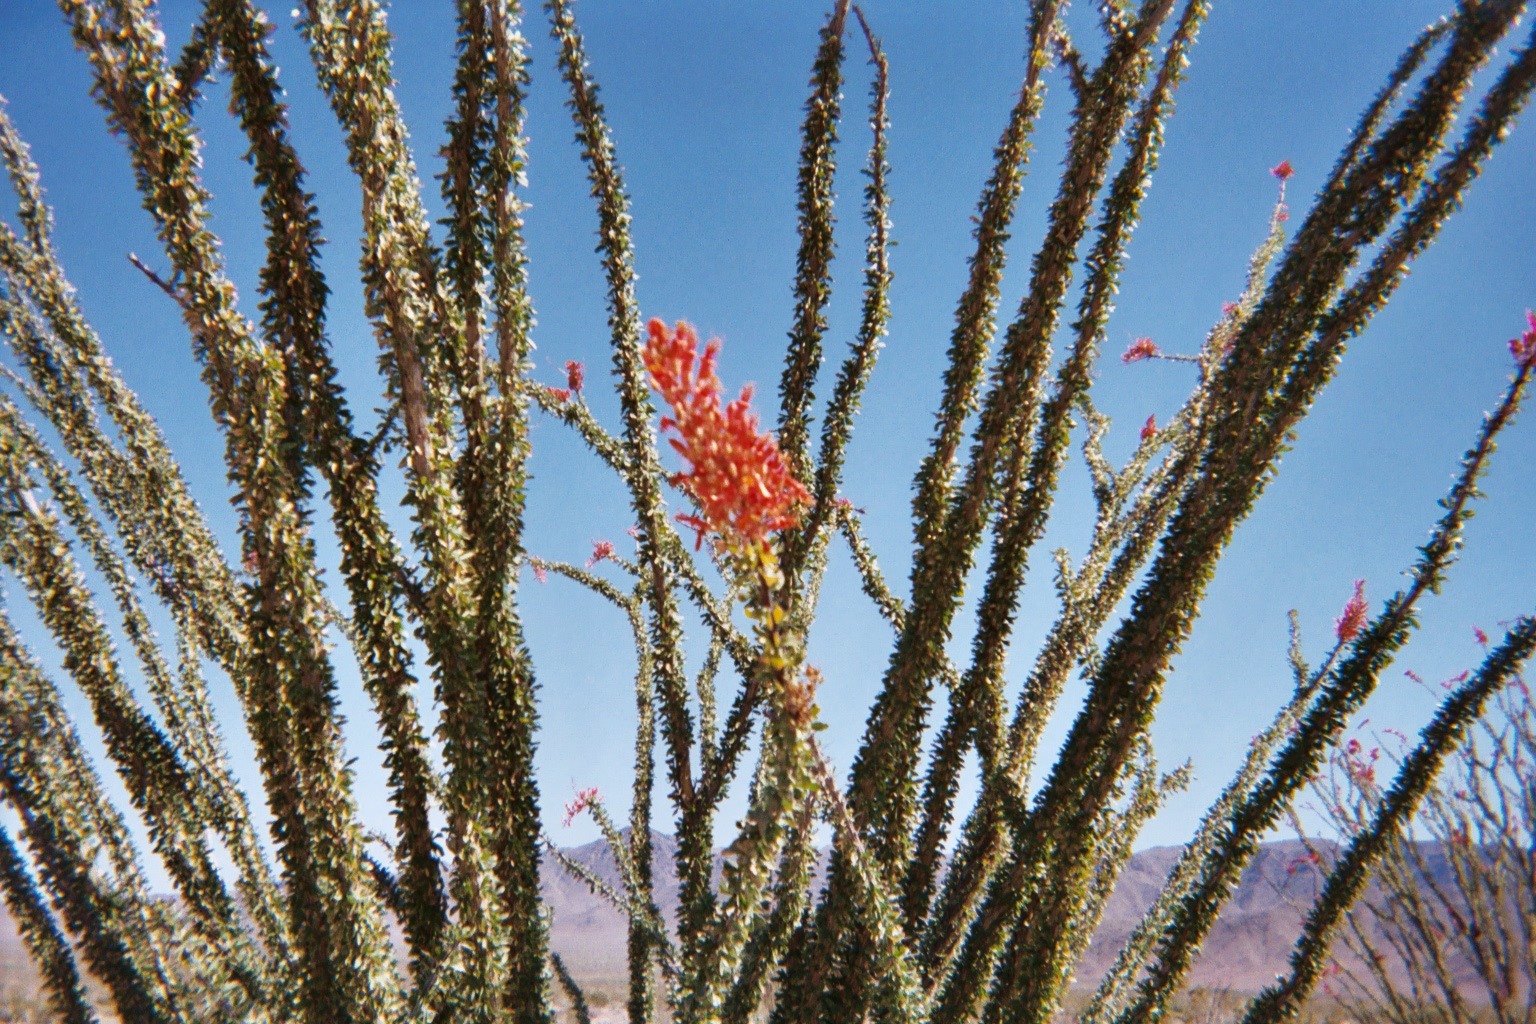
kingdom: Plantae
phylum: Tracheophyta
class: Magnoliopsida
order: Ericales
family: Fouquieriaceae
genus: Fouquieria
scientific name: Fouquieria splendens
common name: Vine-cactus
